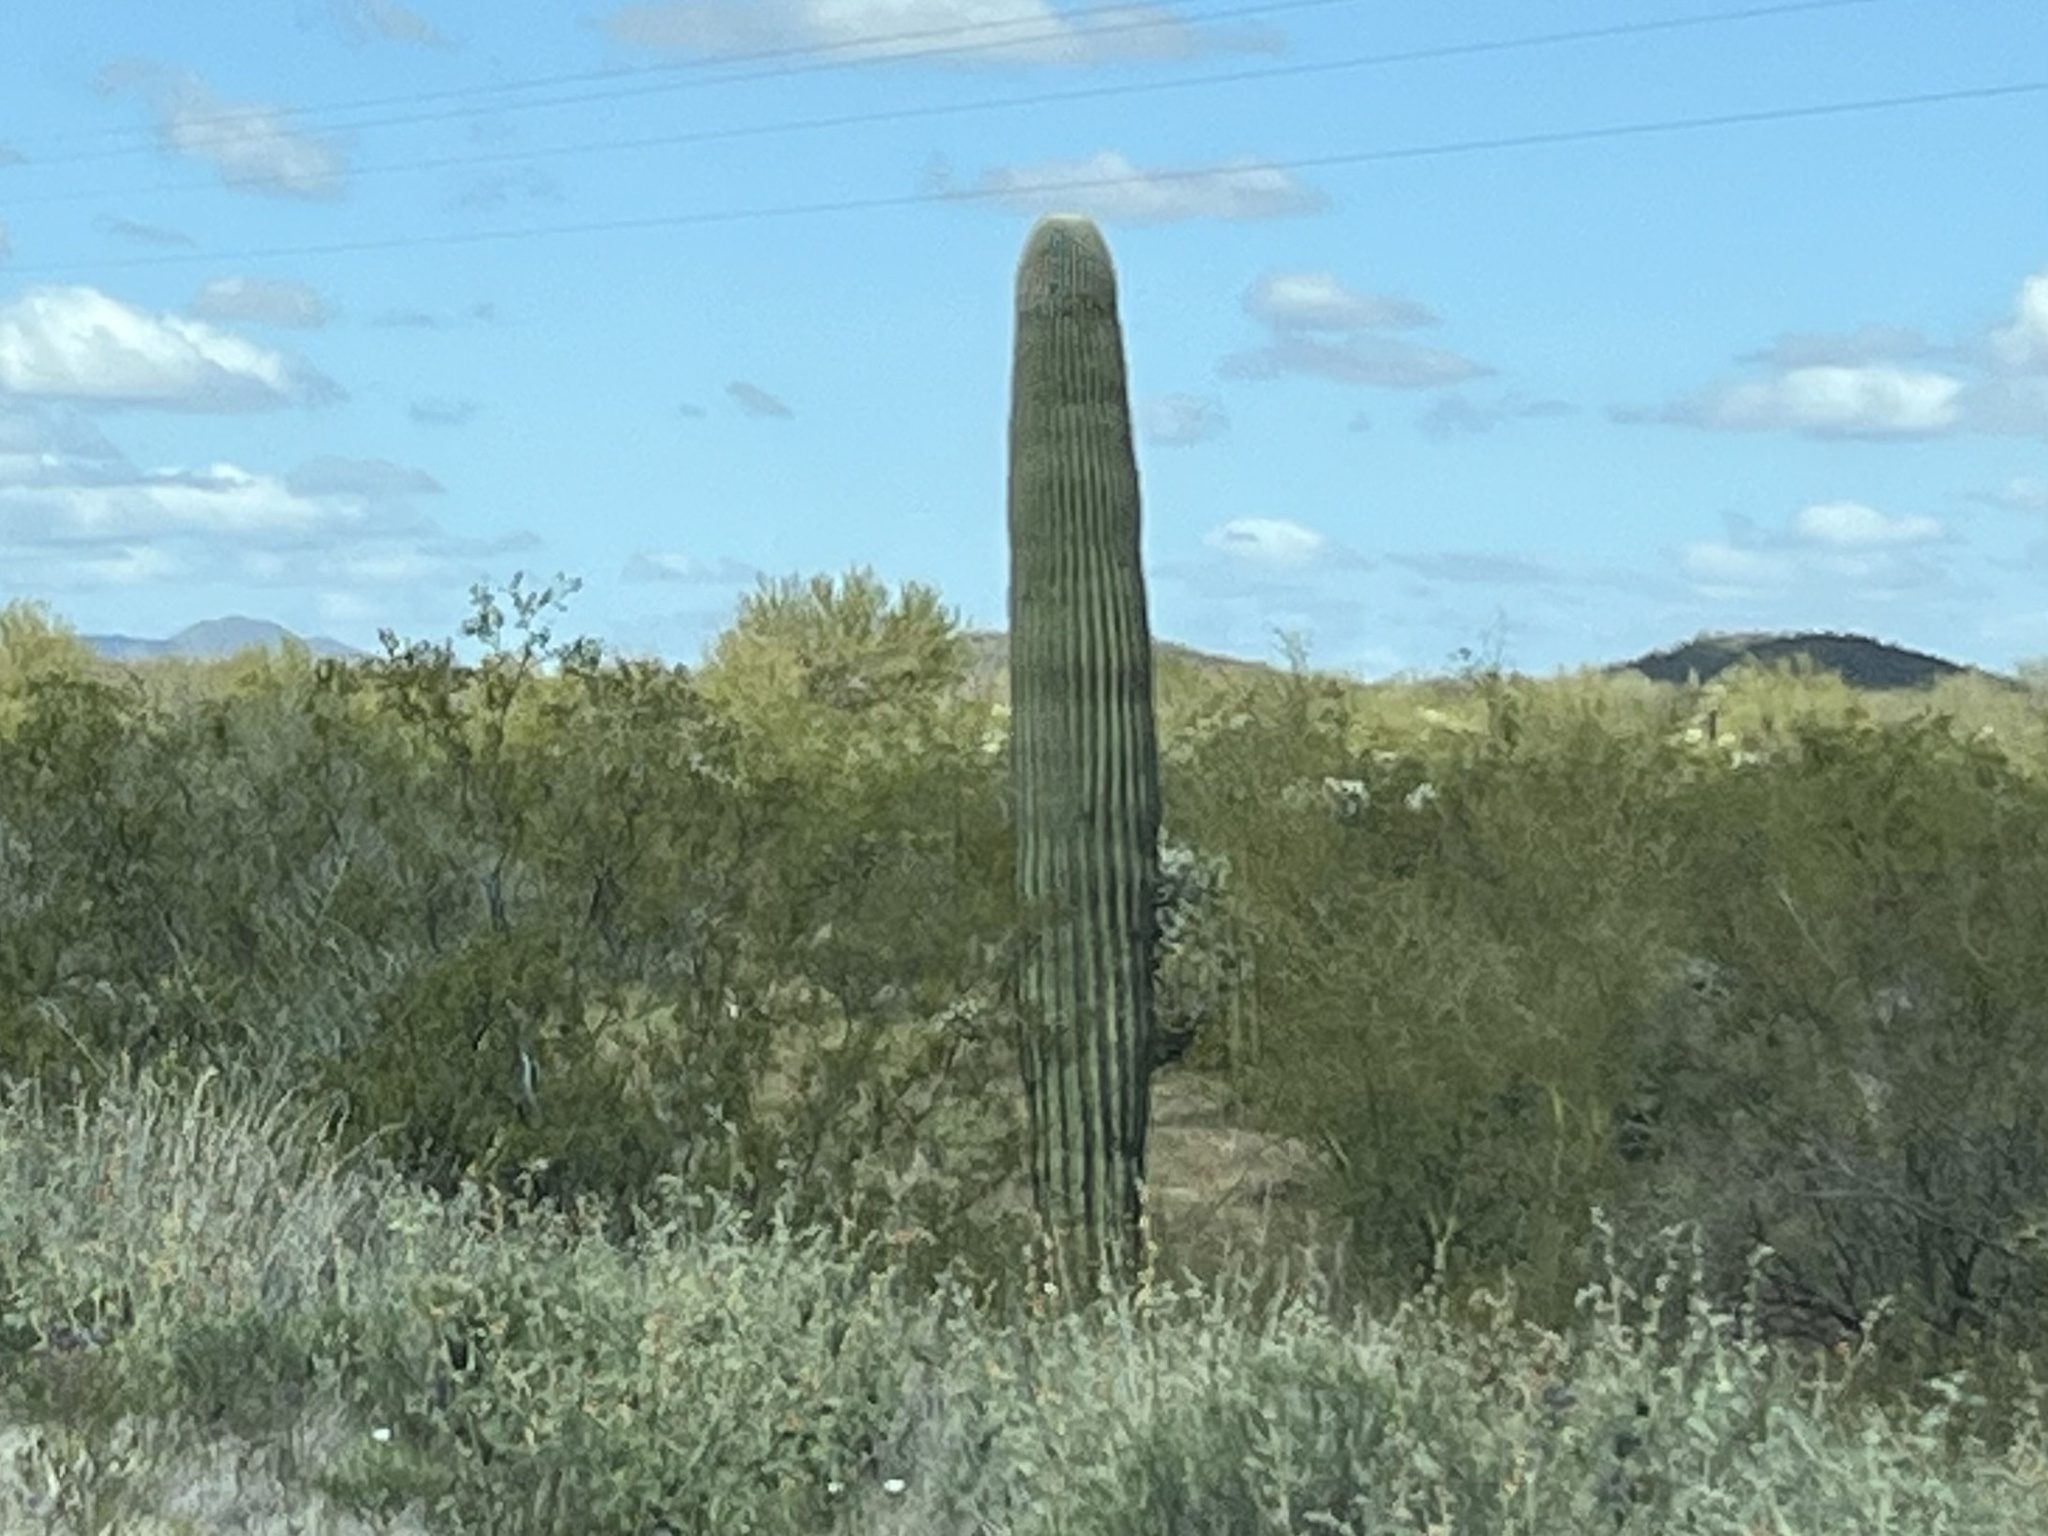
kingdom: Plantae
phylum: Tracheophyta
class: Magnoliopsida
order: Caryophyllales
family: Cactaceae
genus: Carnegiea
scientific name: Carnegiea gigantea
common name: Saguaro
